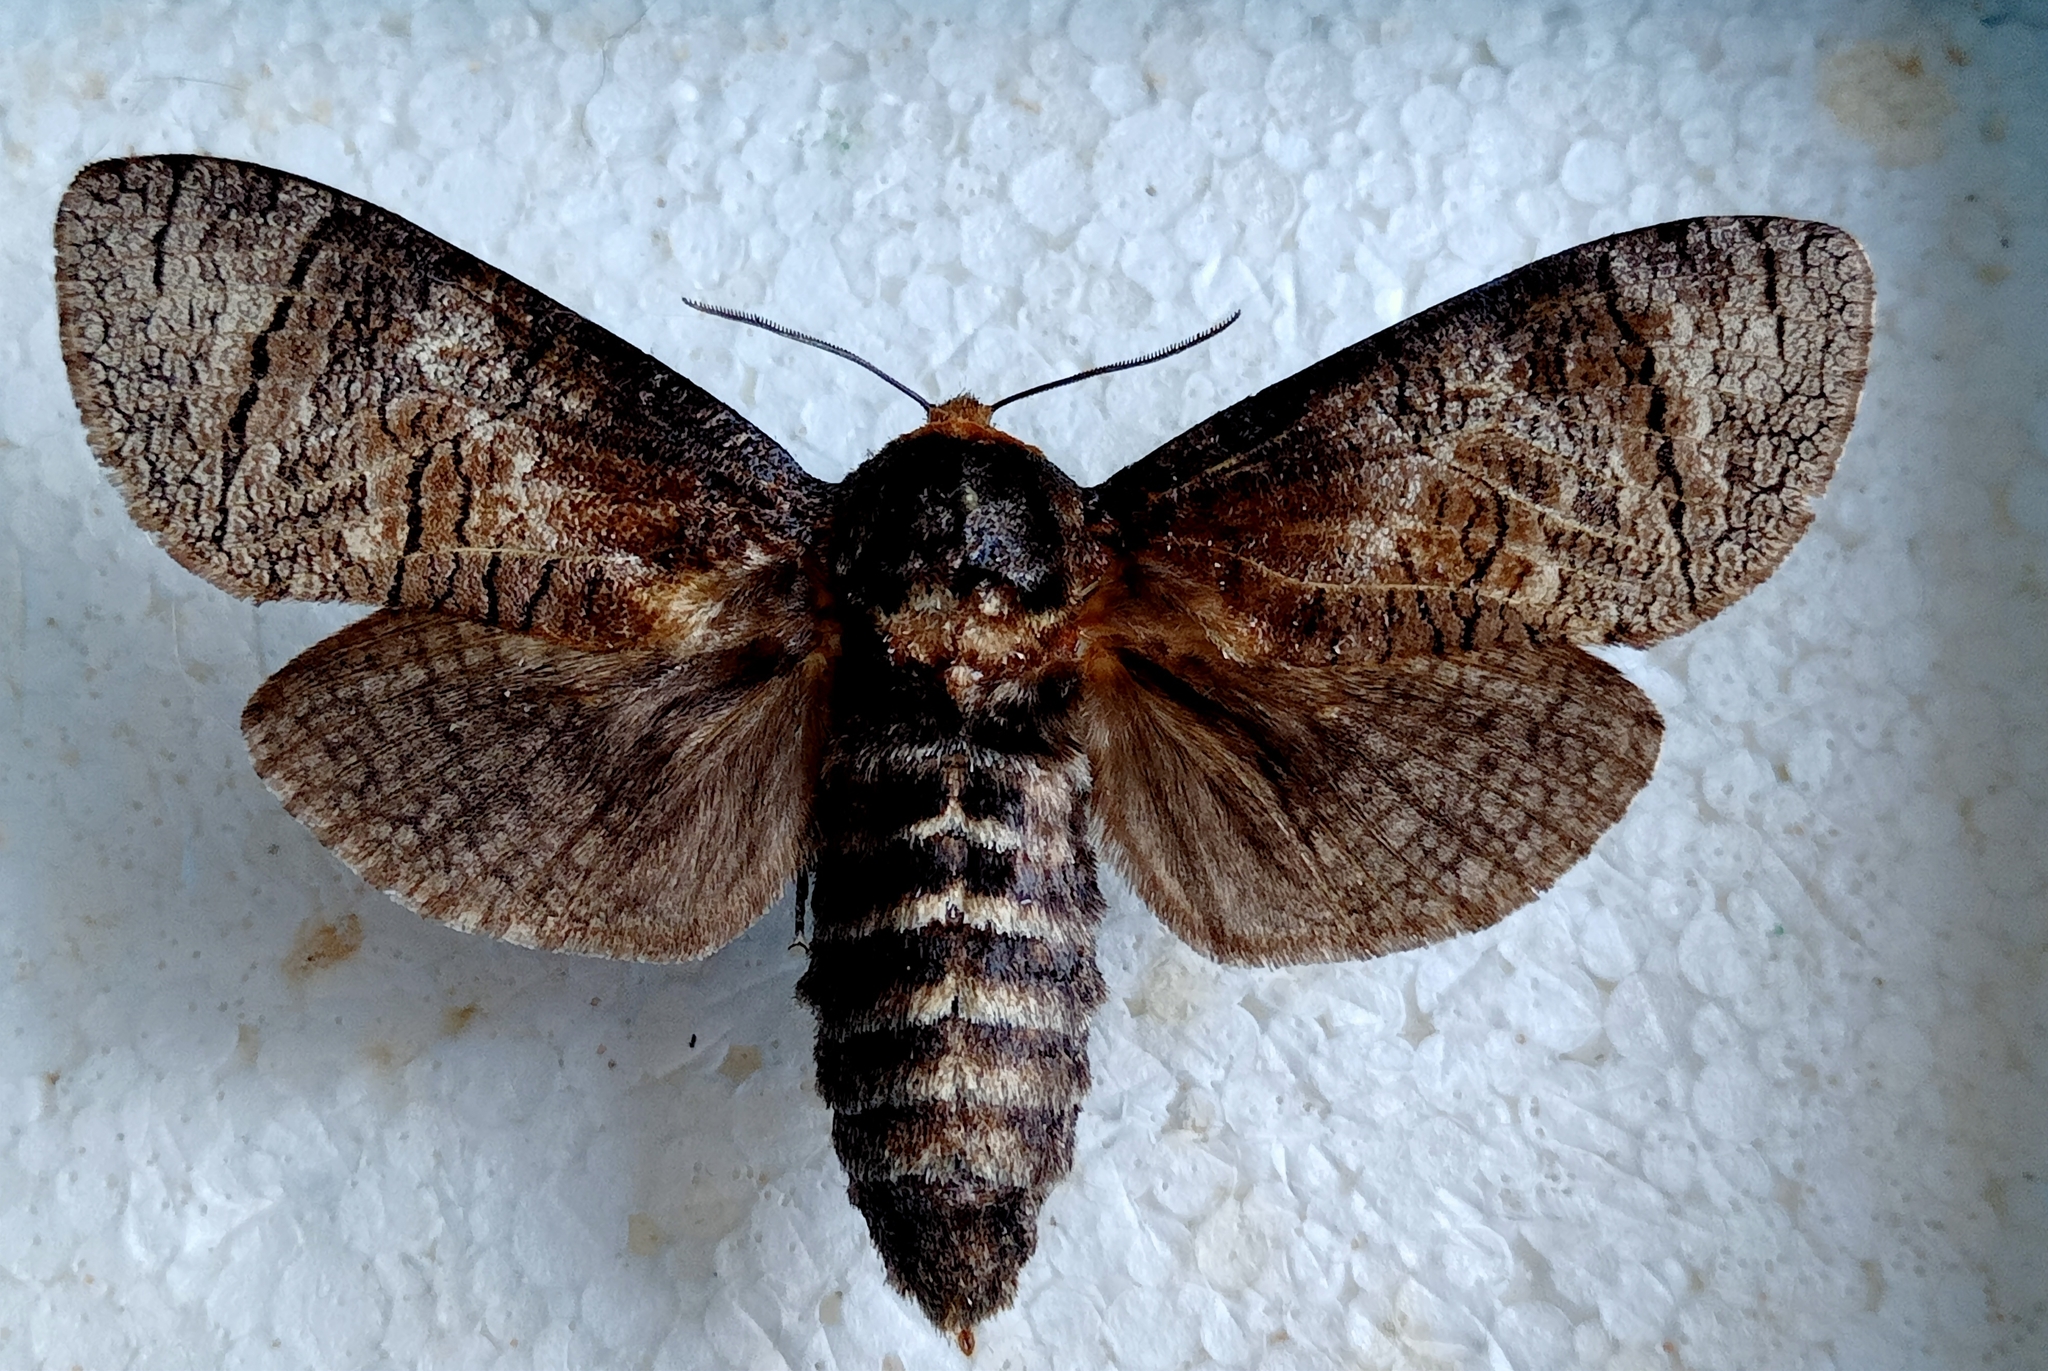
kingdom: Animalia
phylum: Arthropoda
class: Insecta
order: Lepidoptera
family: Cossidae
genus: Cossus
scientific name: Cossus cossus
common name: Goat moth
